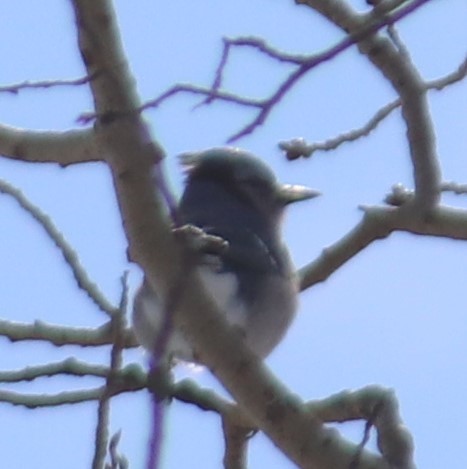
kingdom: Animalia
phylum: Chordata
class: Aves
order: Passeriformes
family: Corvidae
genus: Cyanocitta
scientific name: Cyanocitta cristata
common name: Blue jay
